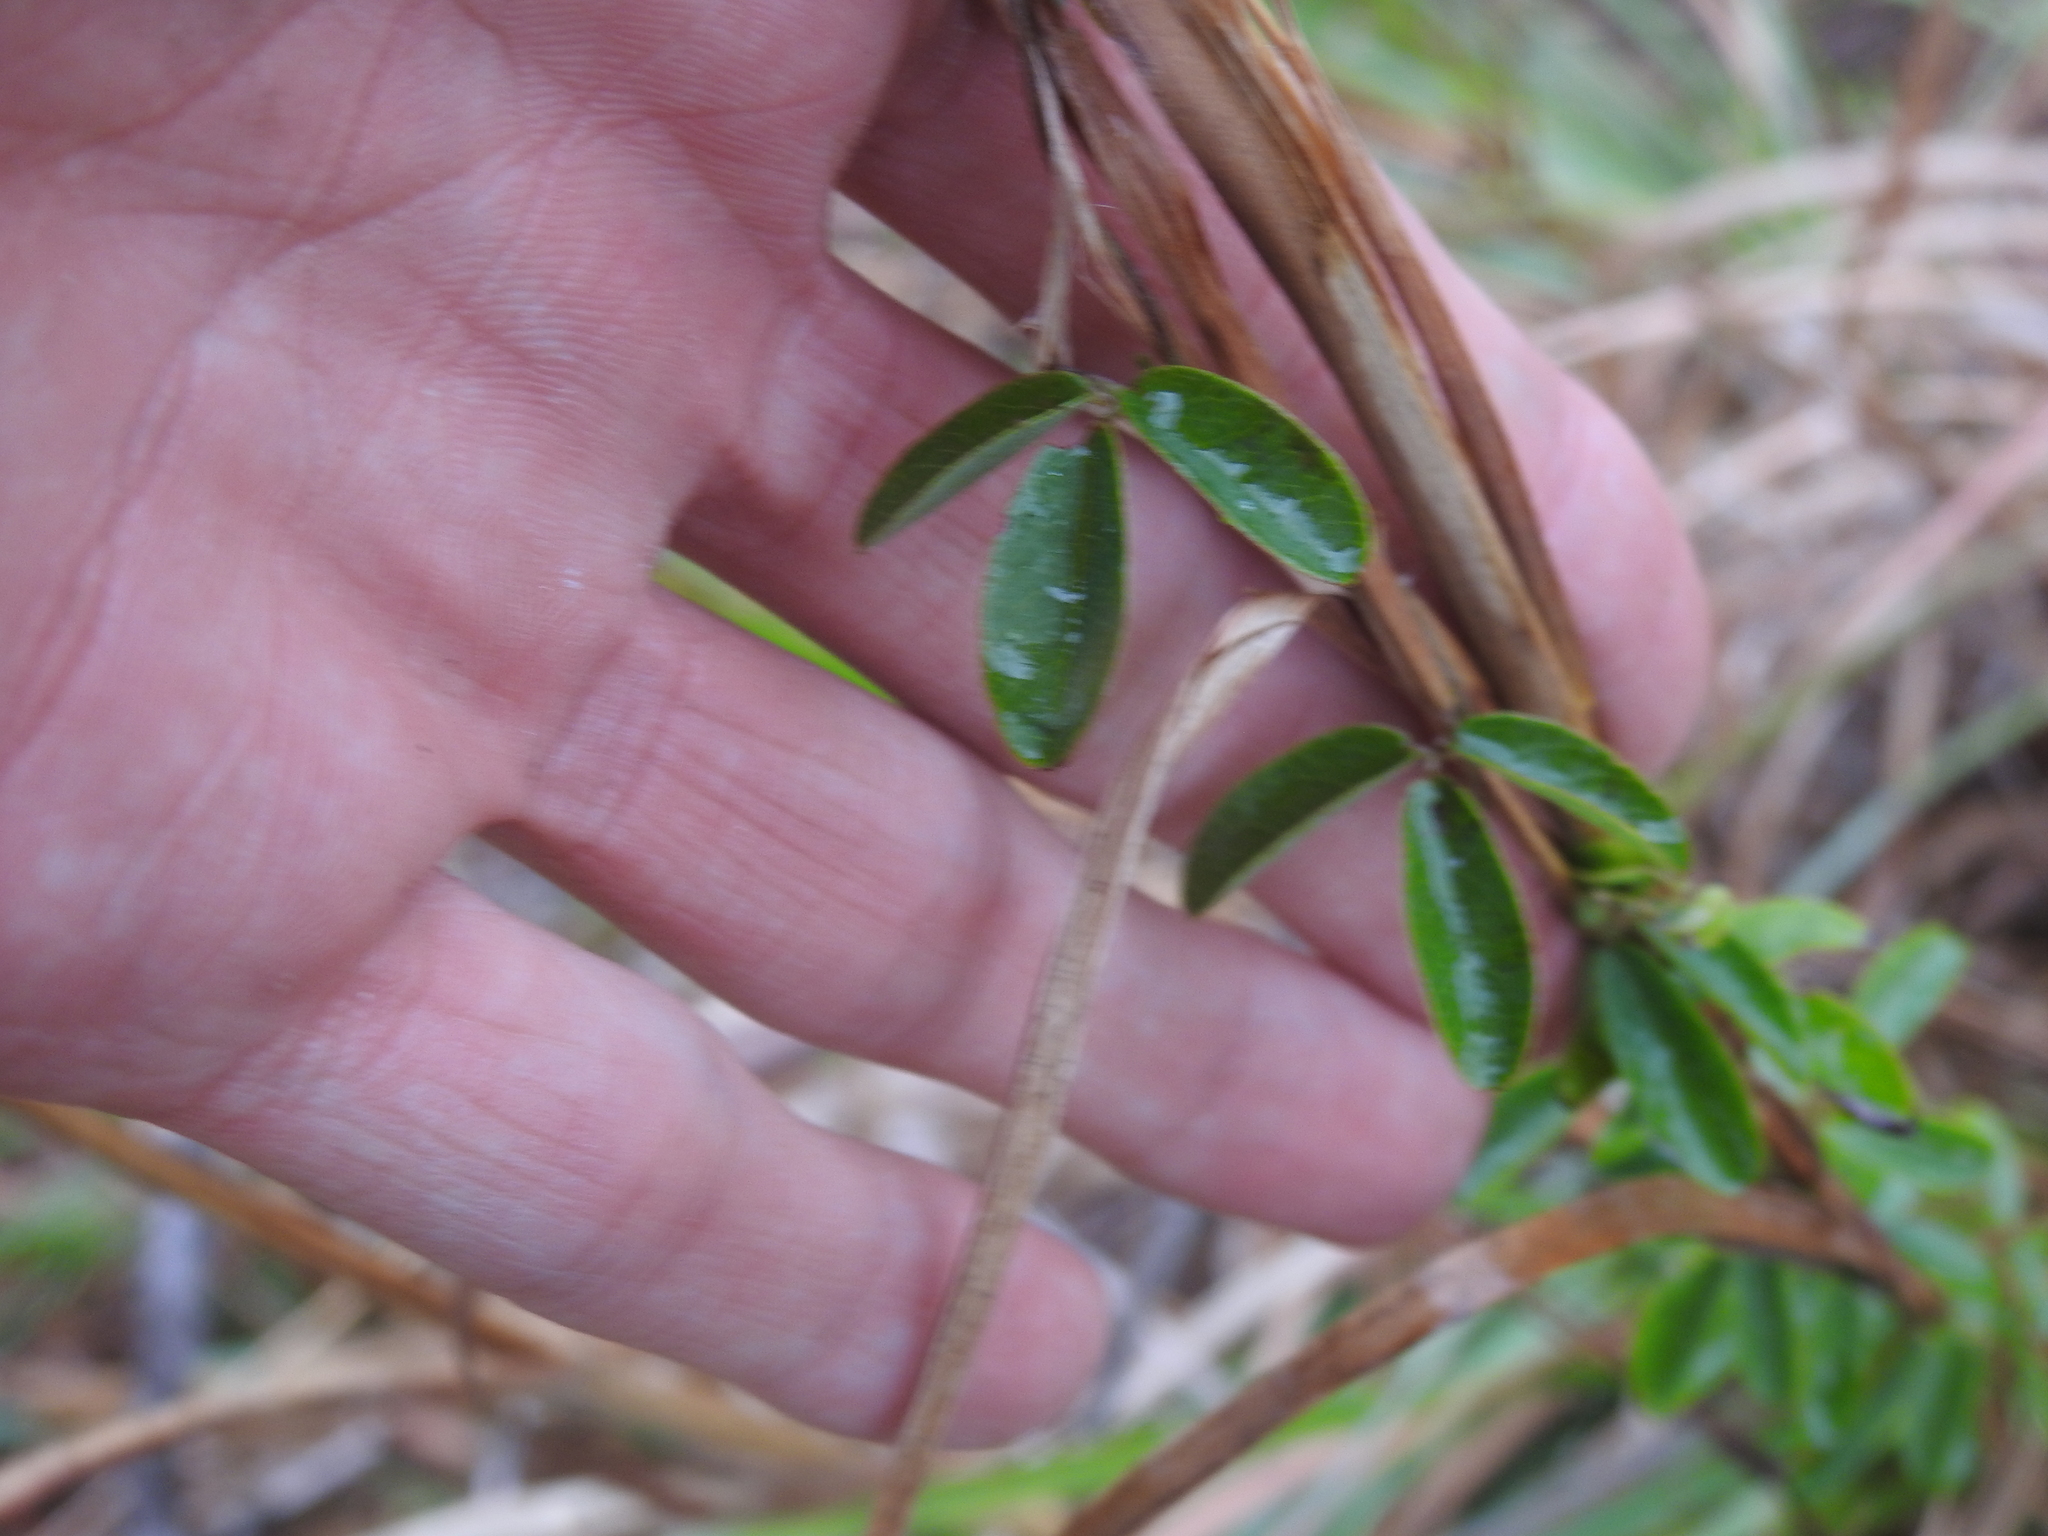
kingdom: Plantae
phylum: Tracheophyta
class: Magnoliopsida
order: Fabales
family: Fabaceae
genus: Galactia
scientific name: Galactia volubilis
